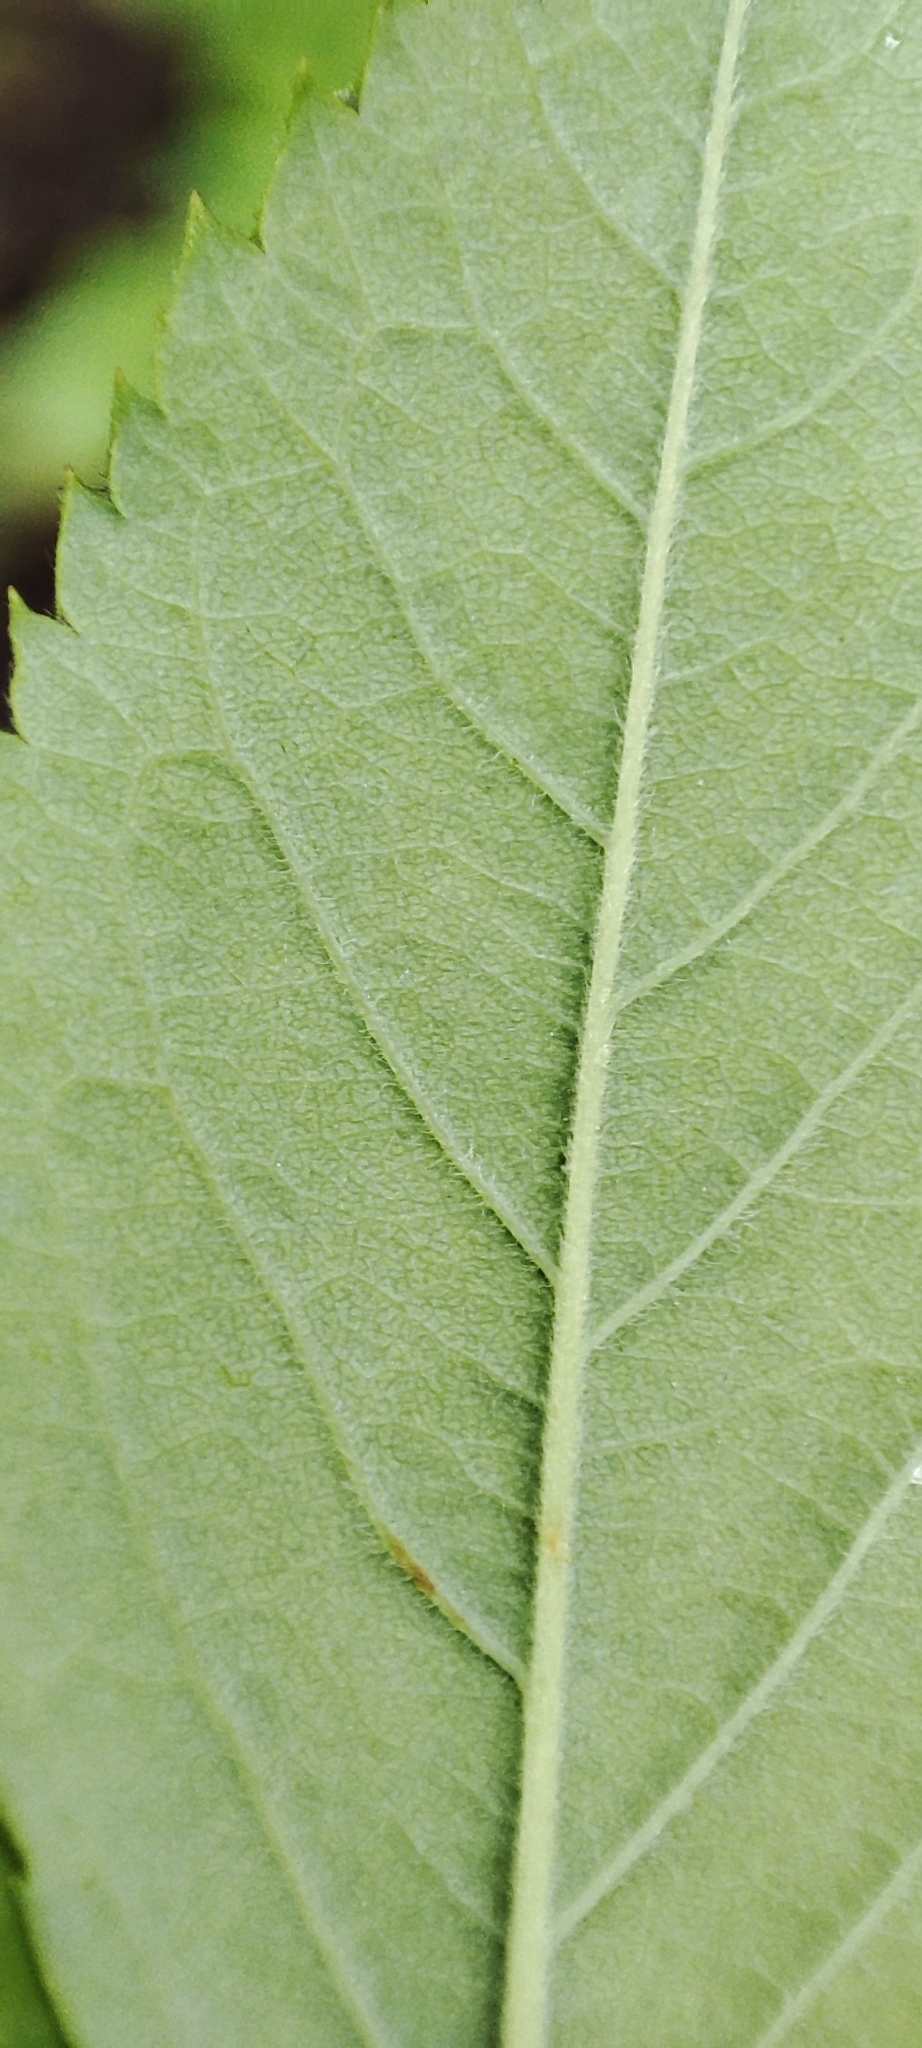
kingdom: Plantae
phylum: Tracheophyta
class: Magnoliopsida
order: Rosales
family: Rosaceae
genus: Rosa
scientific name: Rosa majalis
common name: Cinnamon rose
